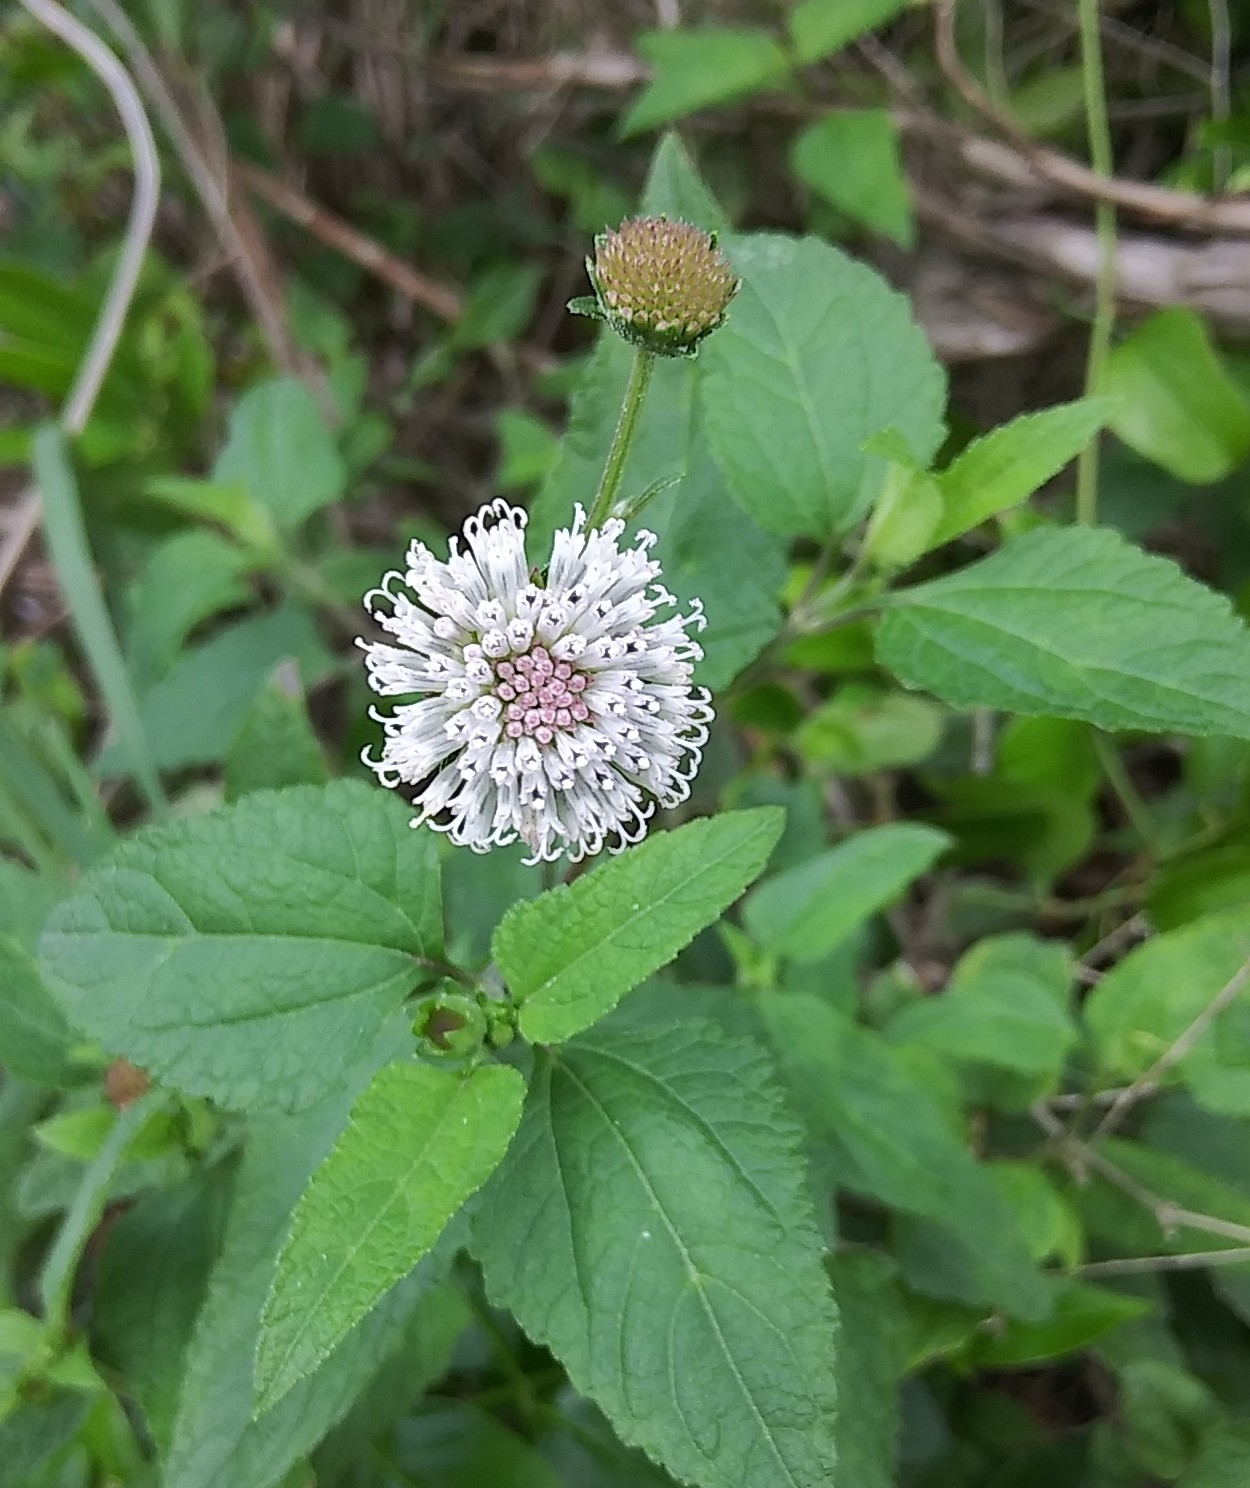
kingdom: Plantae
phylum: Tracheophyta
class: Magnoliopsida
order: Asterales
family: Asteraceae
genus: Melanthera
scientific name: Melanthera nivea
